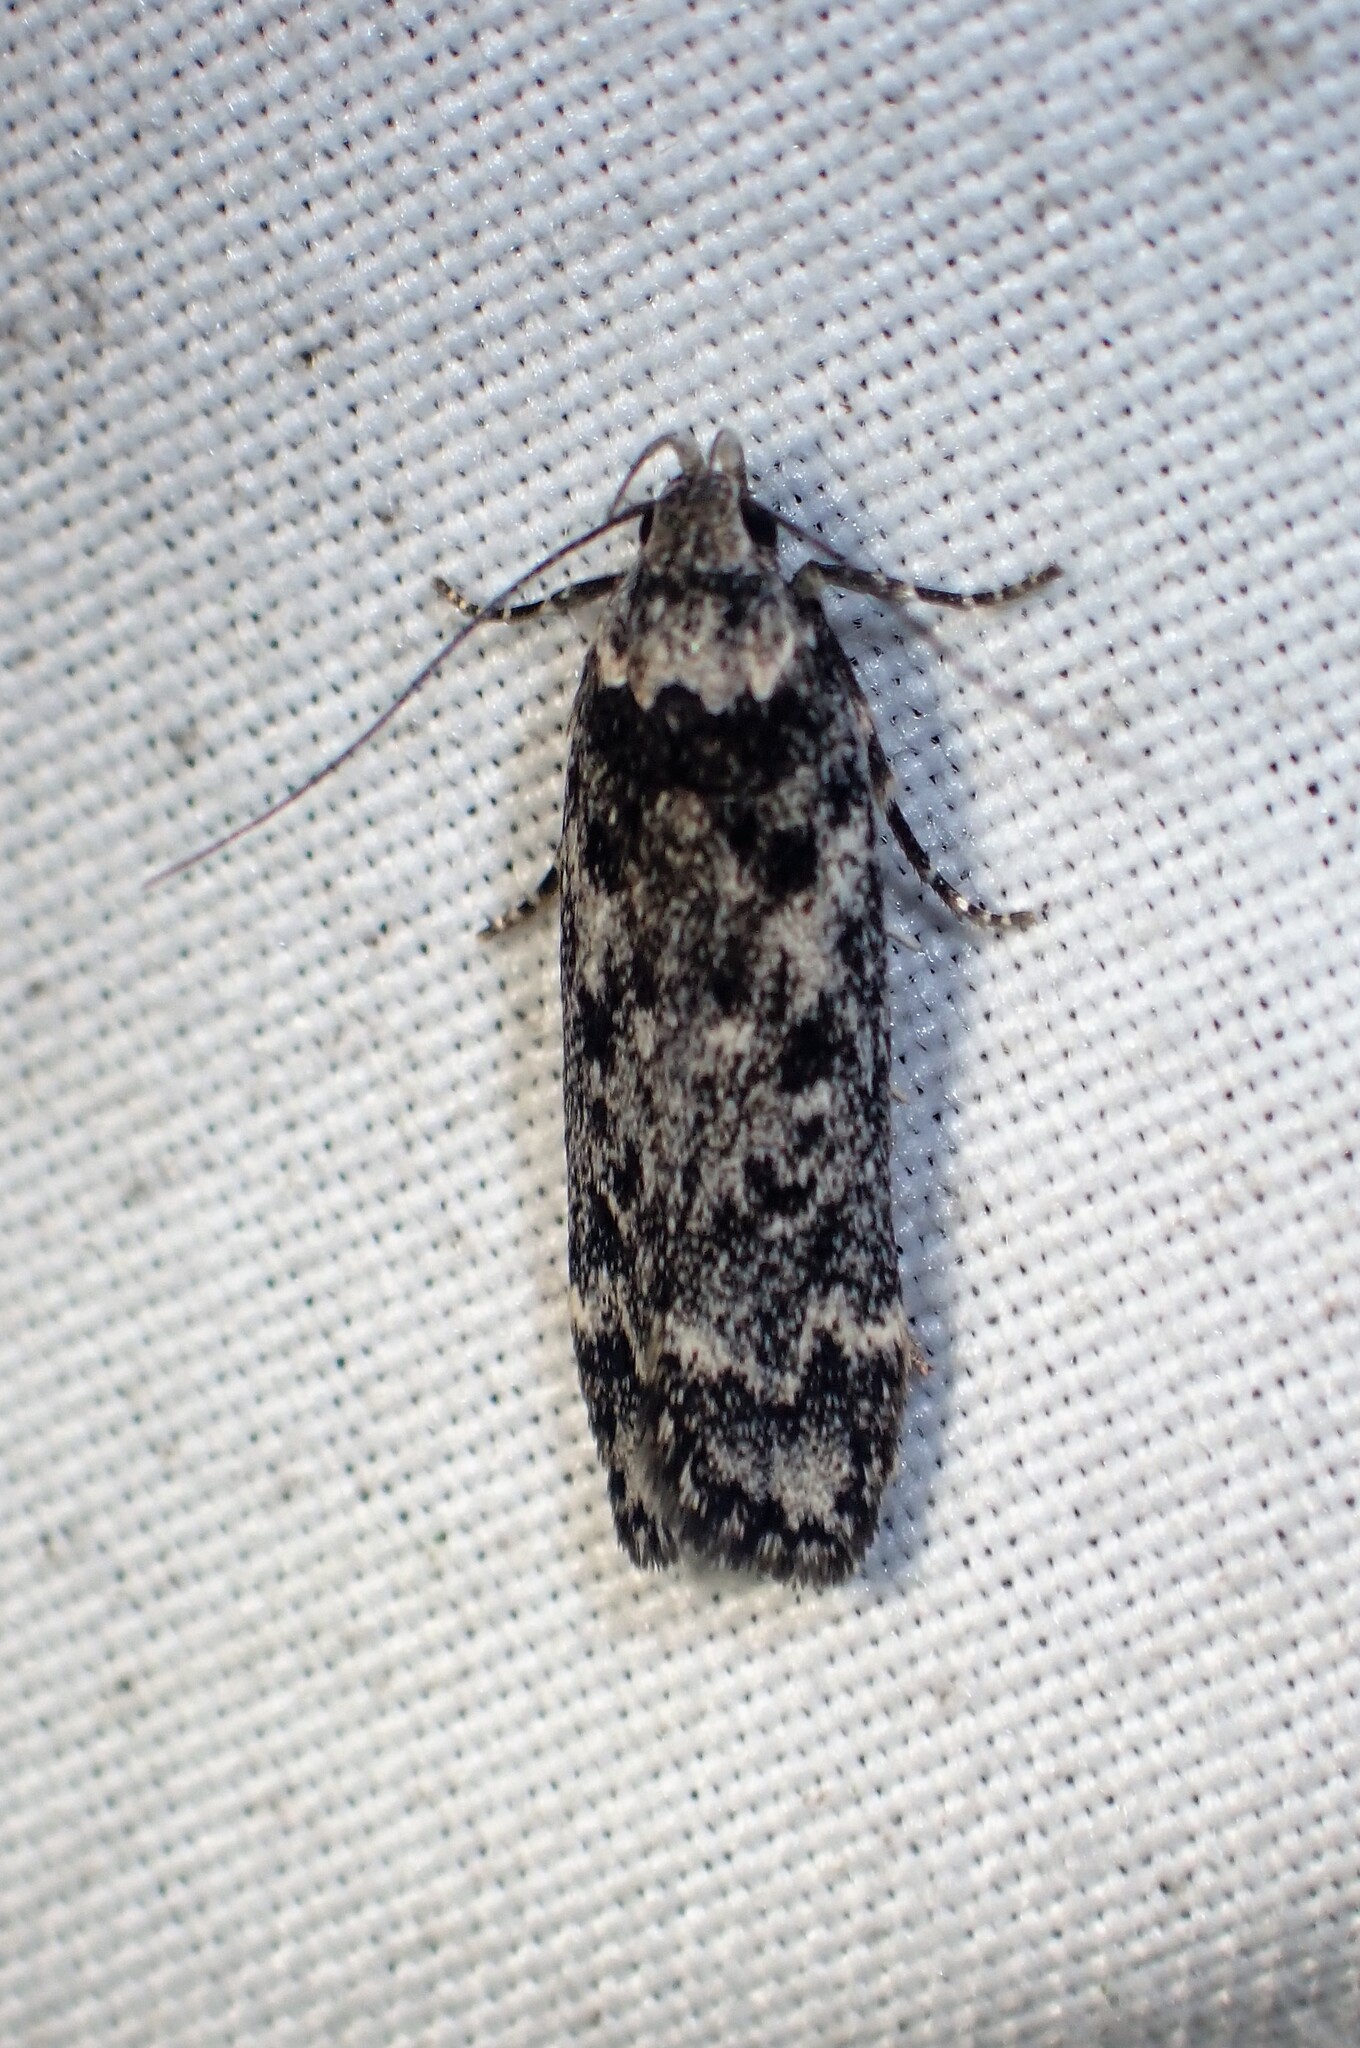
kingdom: Animalia
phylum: Arthropoda
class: Insecta
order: Lepidoptera
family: Gelechiidae
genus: Anacampsis
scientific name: Anacampsis niveopulvella
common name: Pale-headed aspen leafroller moth
